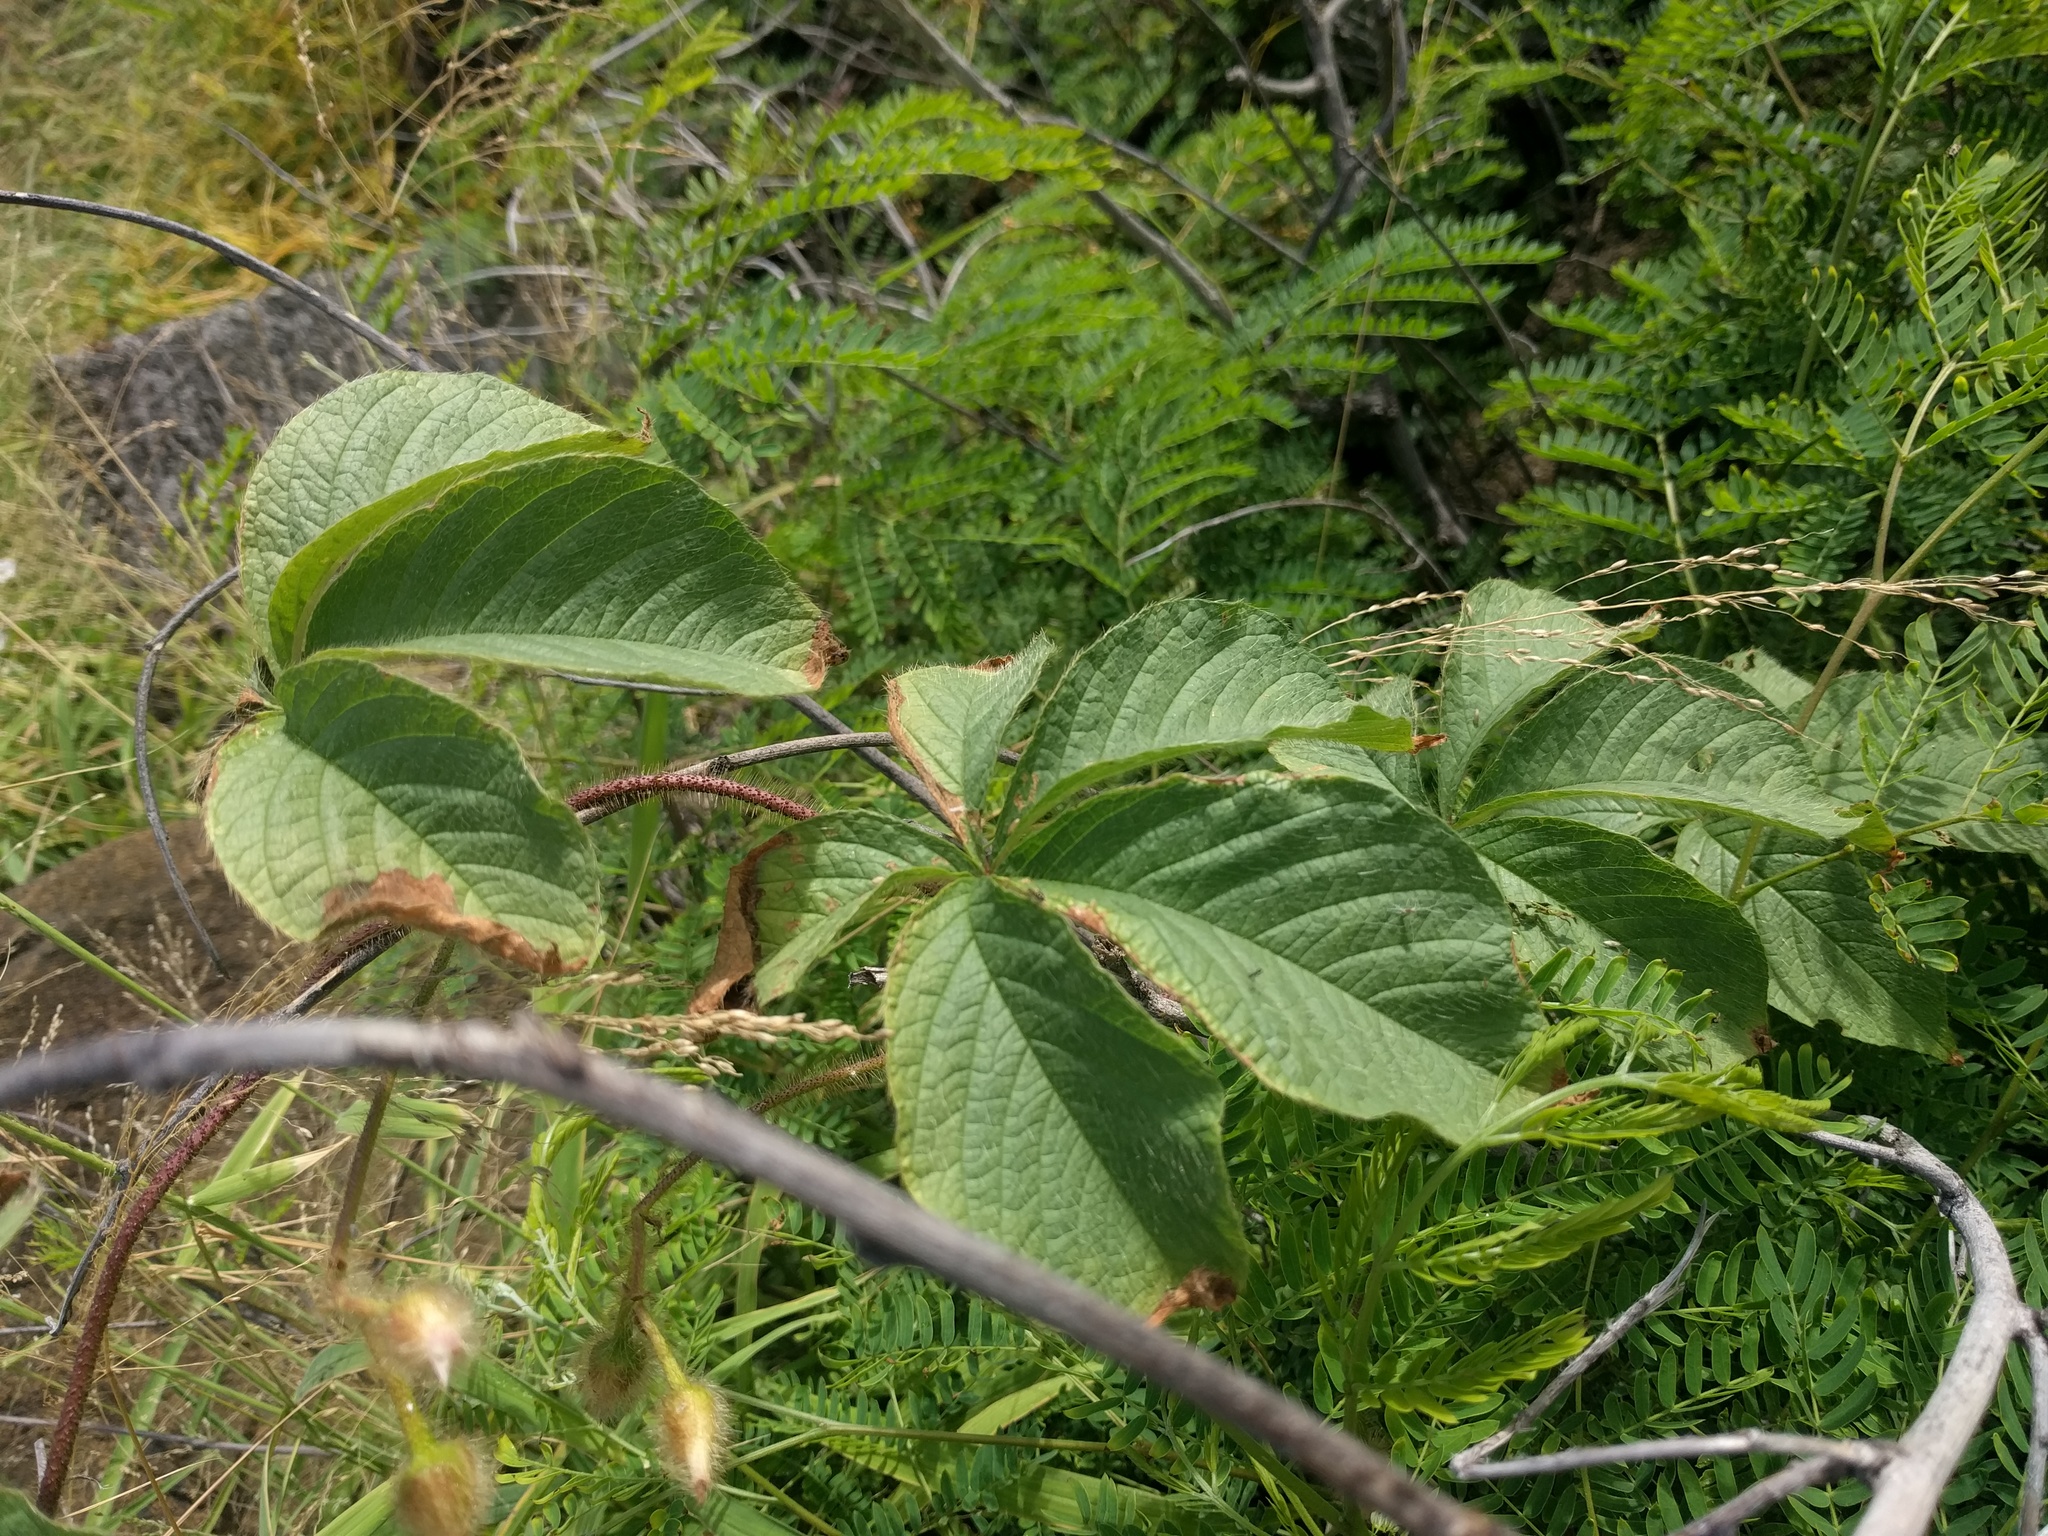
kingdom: Plantae
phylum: Tracheophyta
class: Magnoliopsida
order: Solanales
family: Convolvulaceae
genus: Distimake
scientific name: Distimake aegyptius
